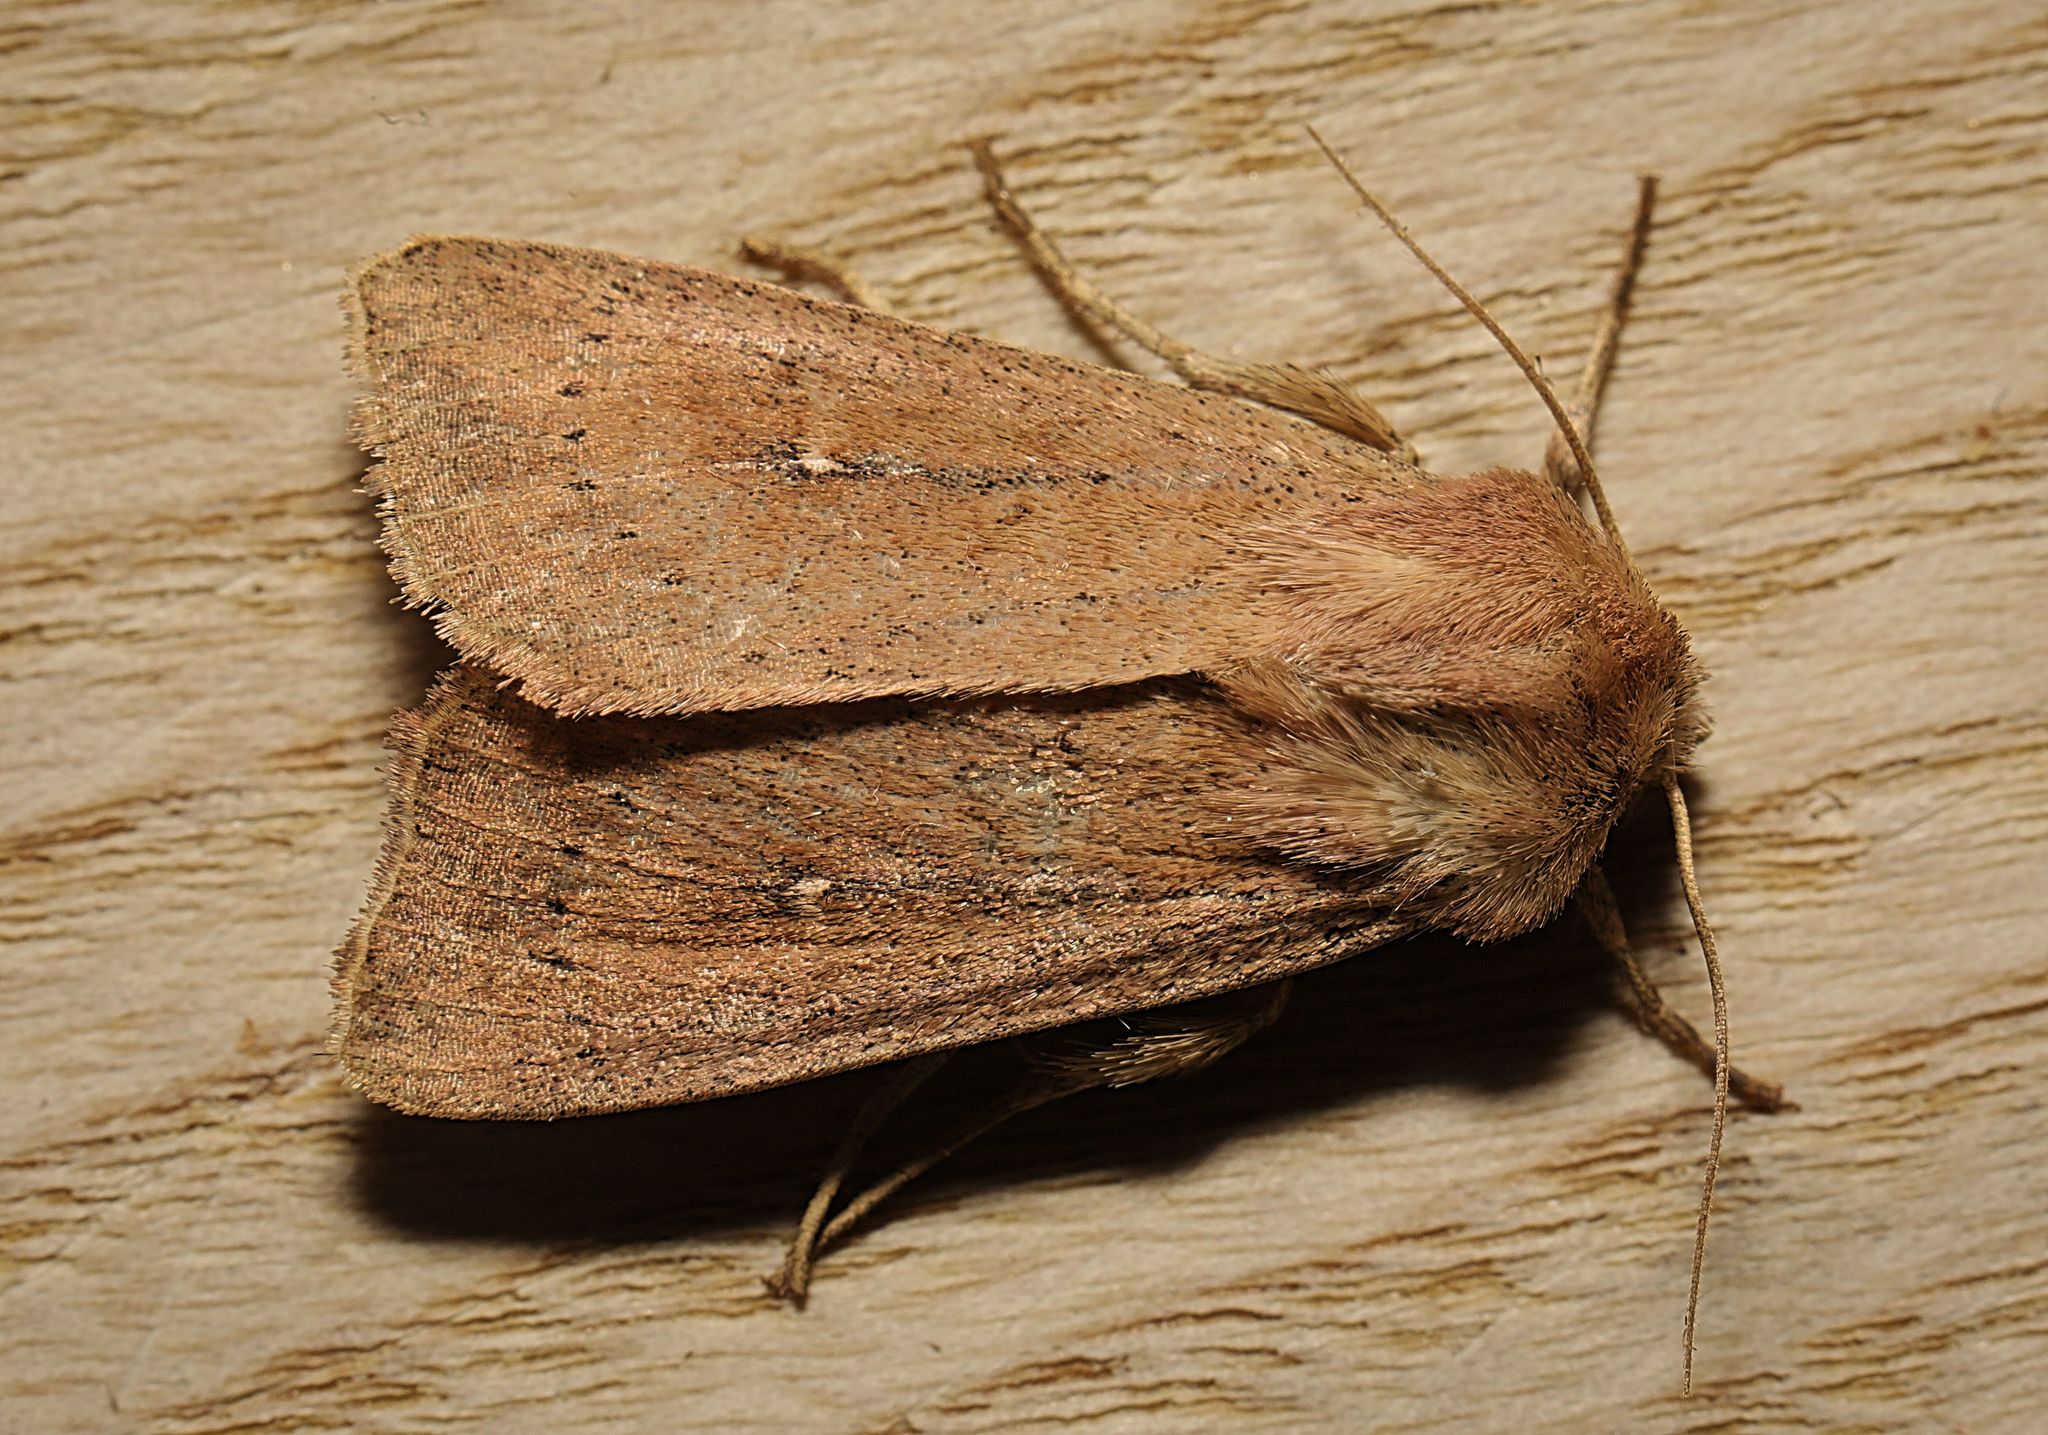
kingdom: Animalia
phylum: Arthropoda
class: Insecta
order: Lepidoptera
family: Noctuidae
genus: Mythimna
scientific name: Mythimna ferrago
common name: Clay
